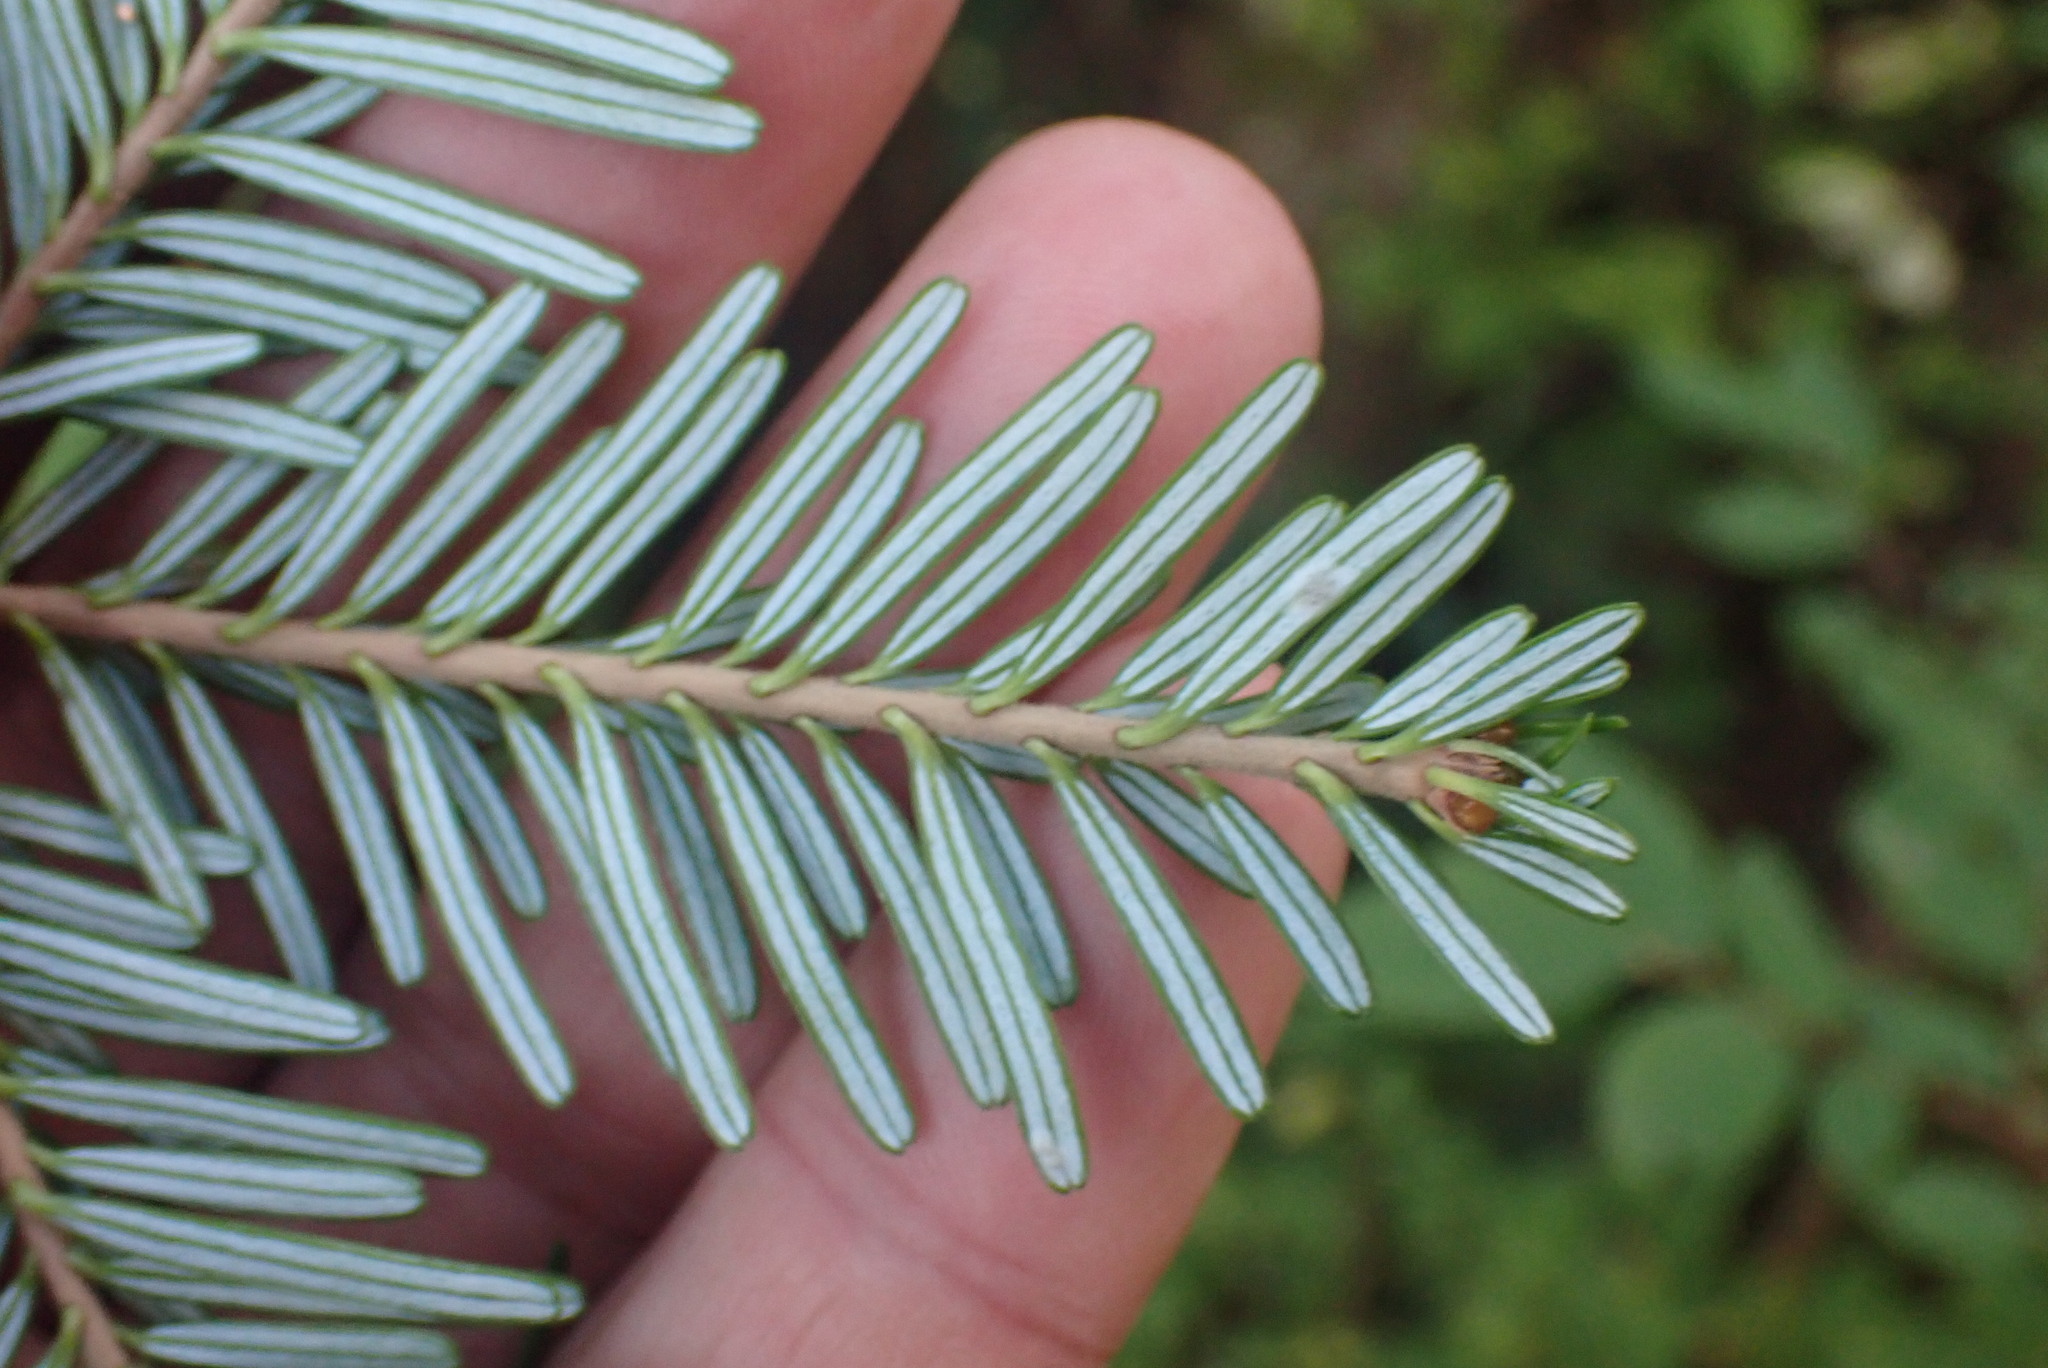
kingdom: Plantae
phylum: Tracheophyta
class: Pinopsida
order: Pinales
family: Pinaceae
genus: Abies
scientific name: Abies amabilis
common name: Pacific silver fir
